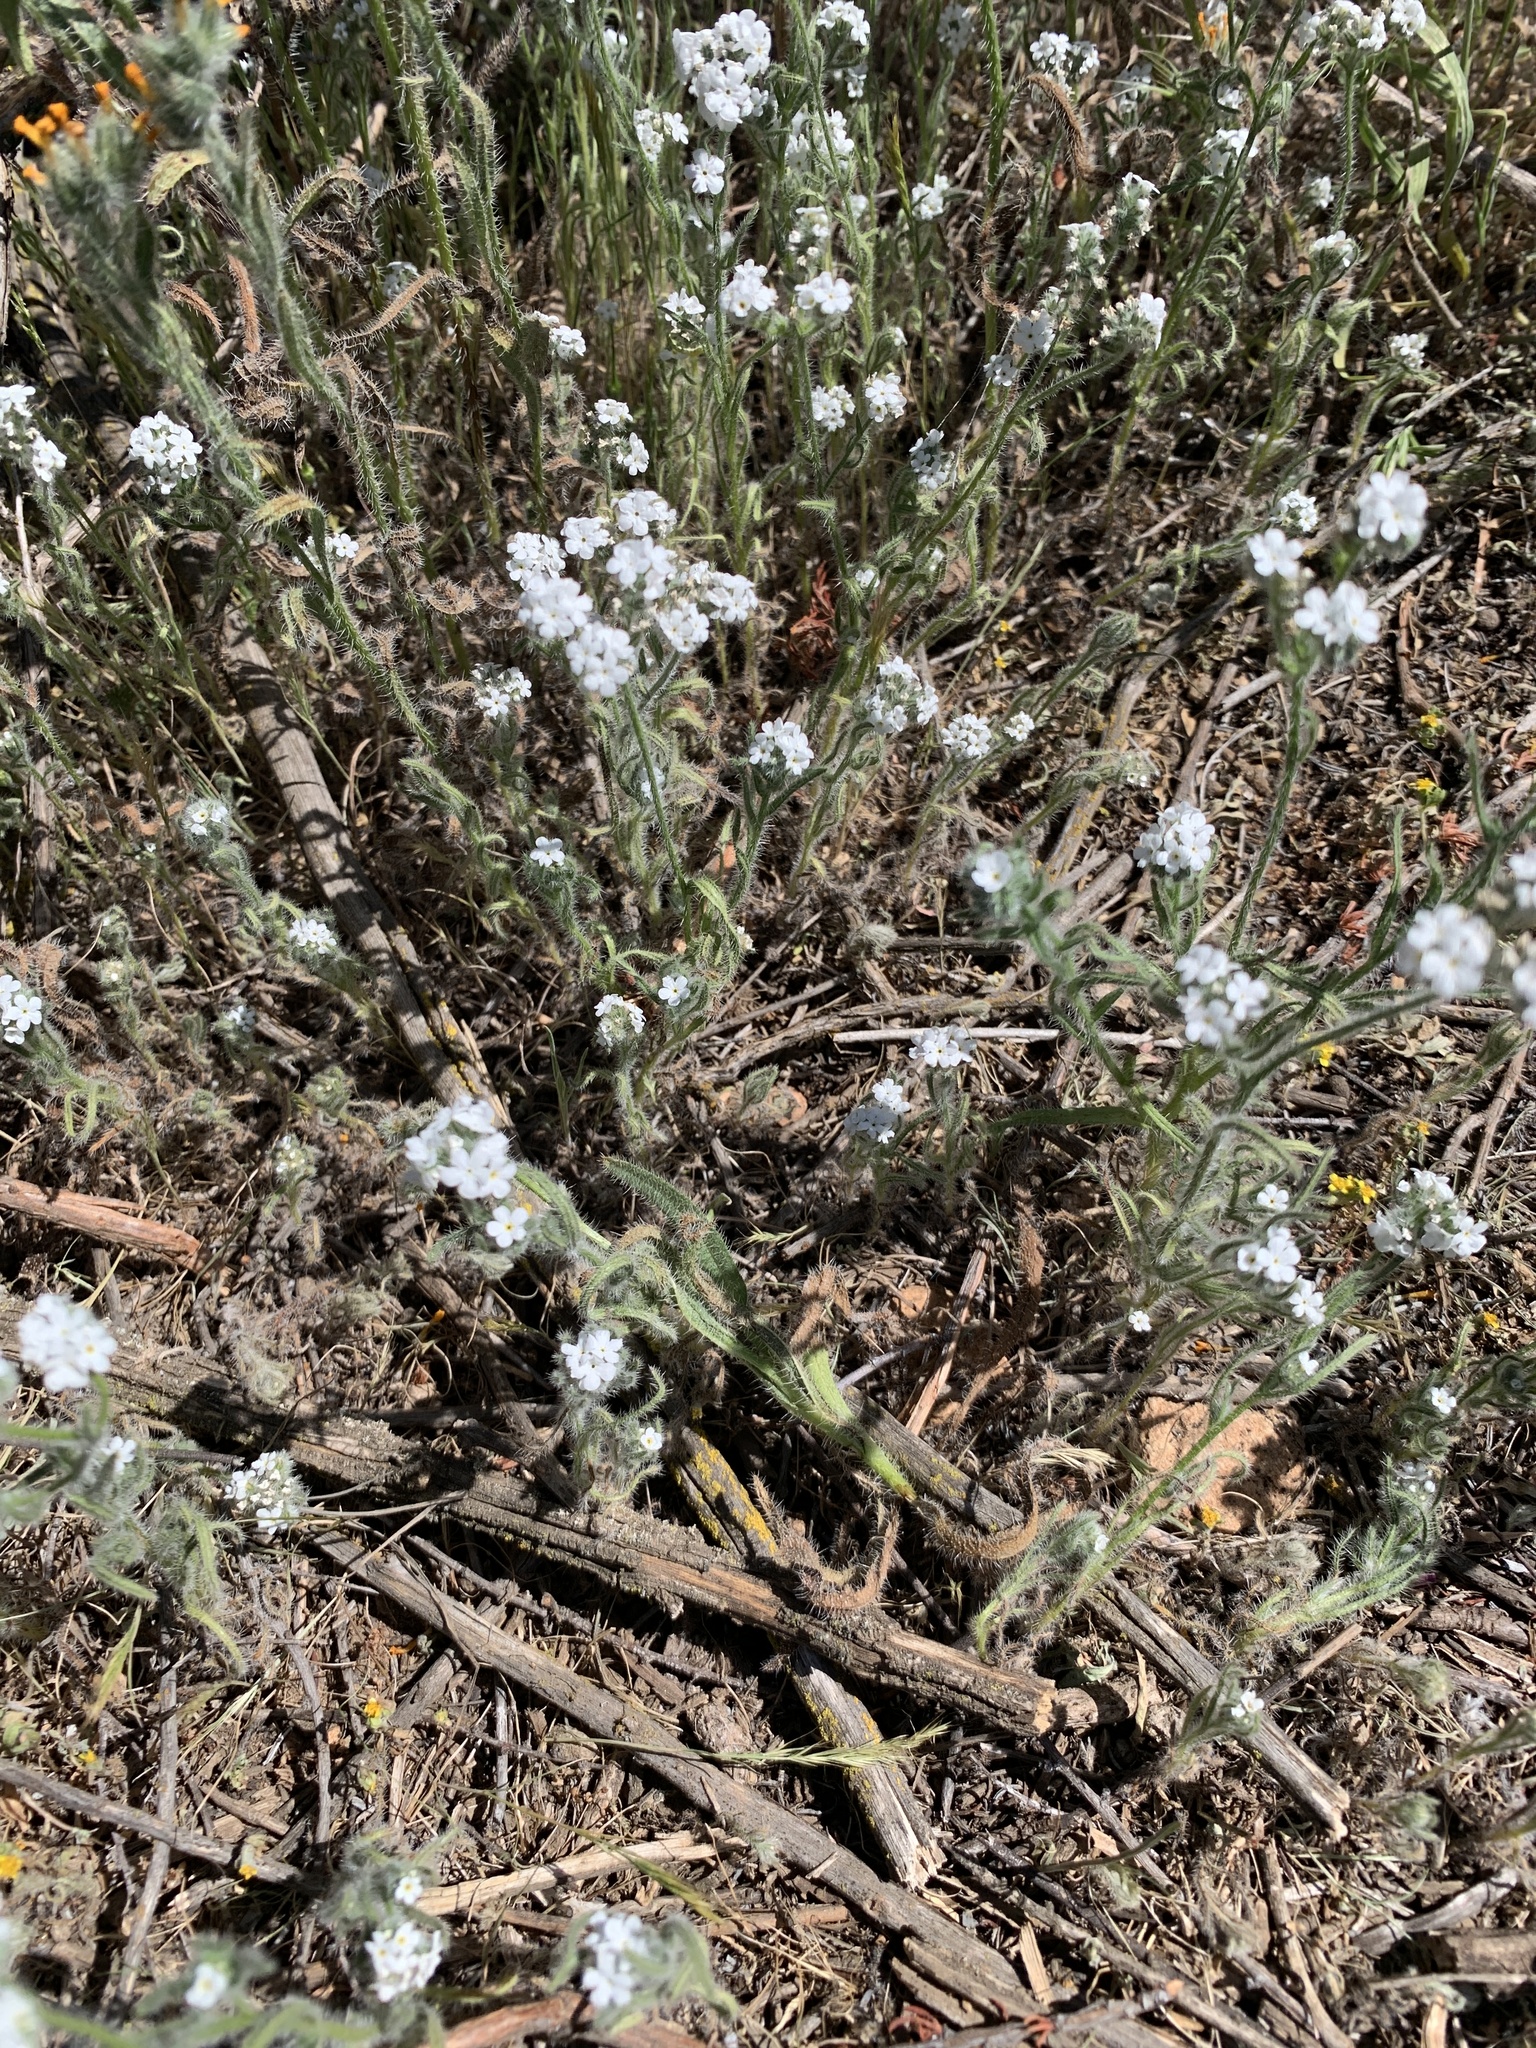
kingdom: Plantae
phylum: Tracheophyta
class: Magnoliopsida
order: Boraginales
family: Boraginaceae
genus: Cryptantha
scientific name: Cryptantha intermedia
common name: Clearwater cryptantha
